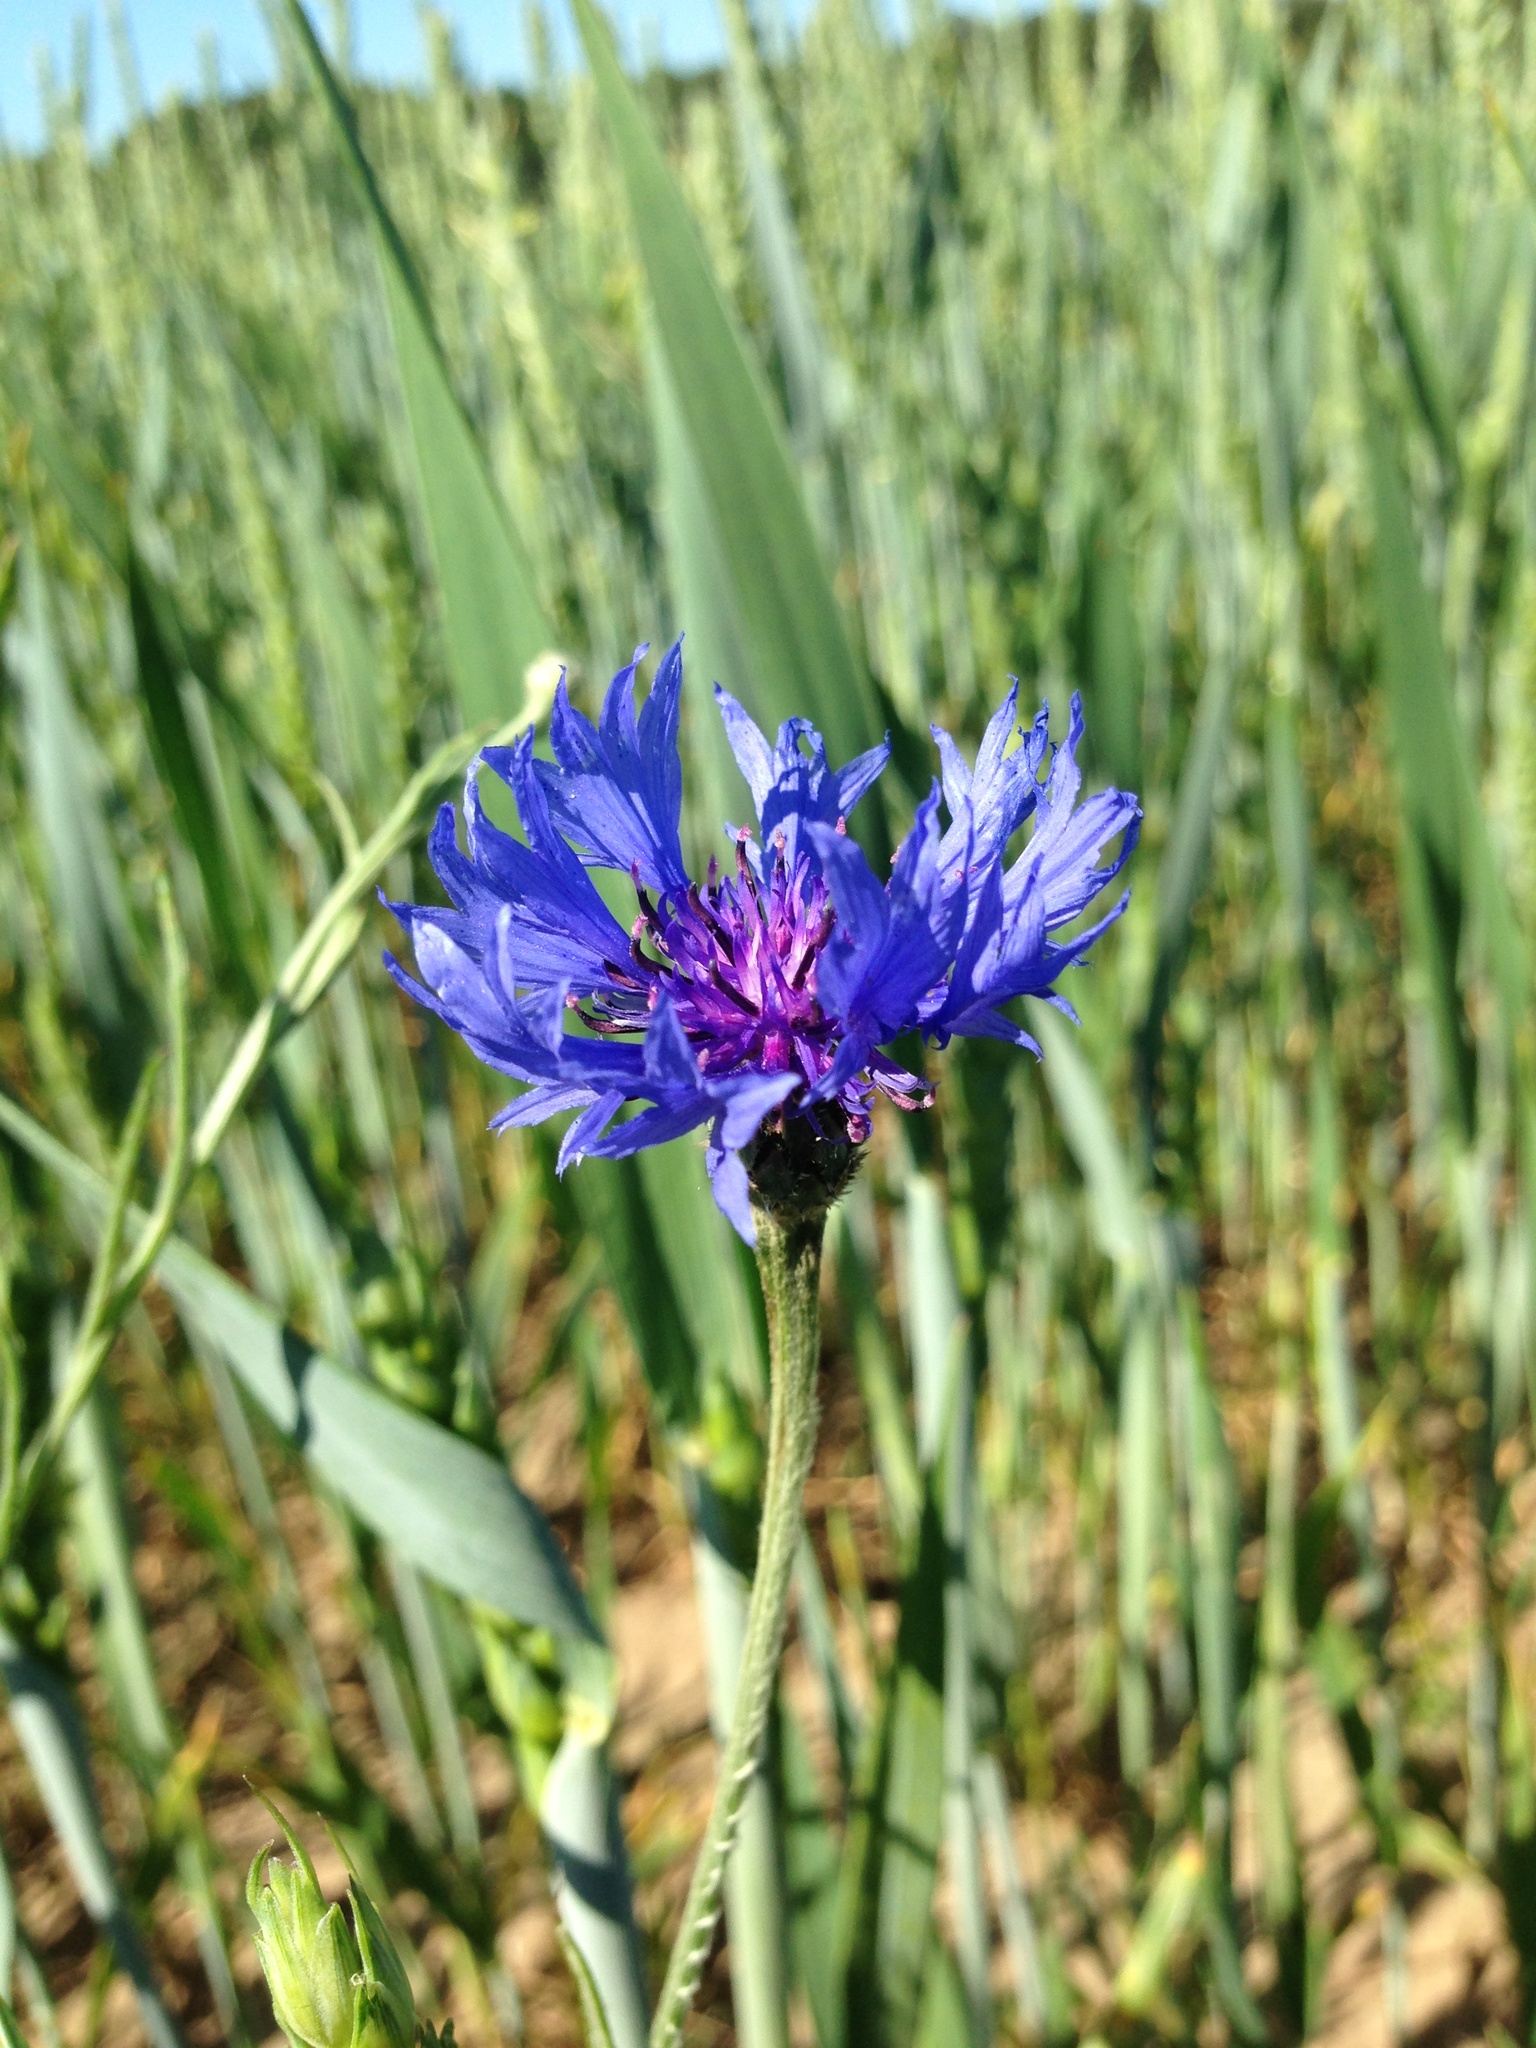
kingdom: Plantae
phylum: Tracheophyta
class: Magnoliopsida
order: Asterales
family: Asteraceae
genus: Centaurea
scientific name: Centaurea cyanus
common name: Cornflower
